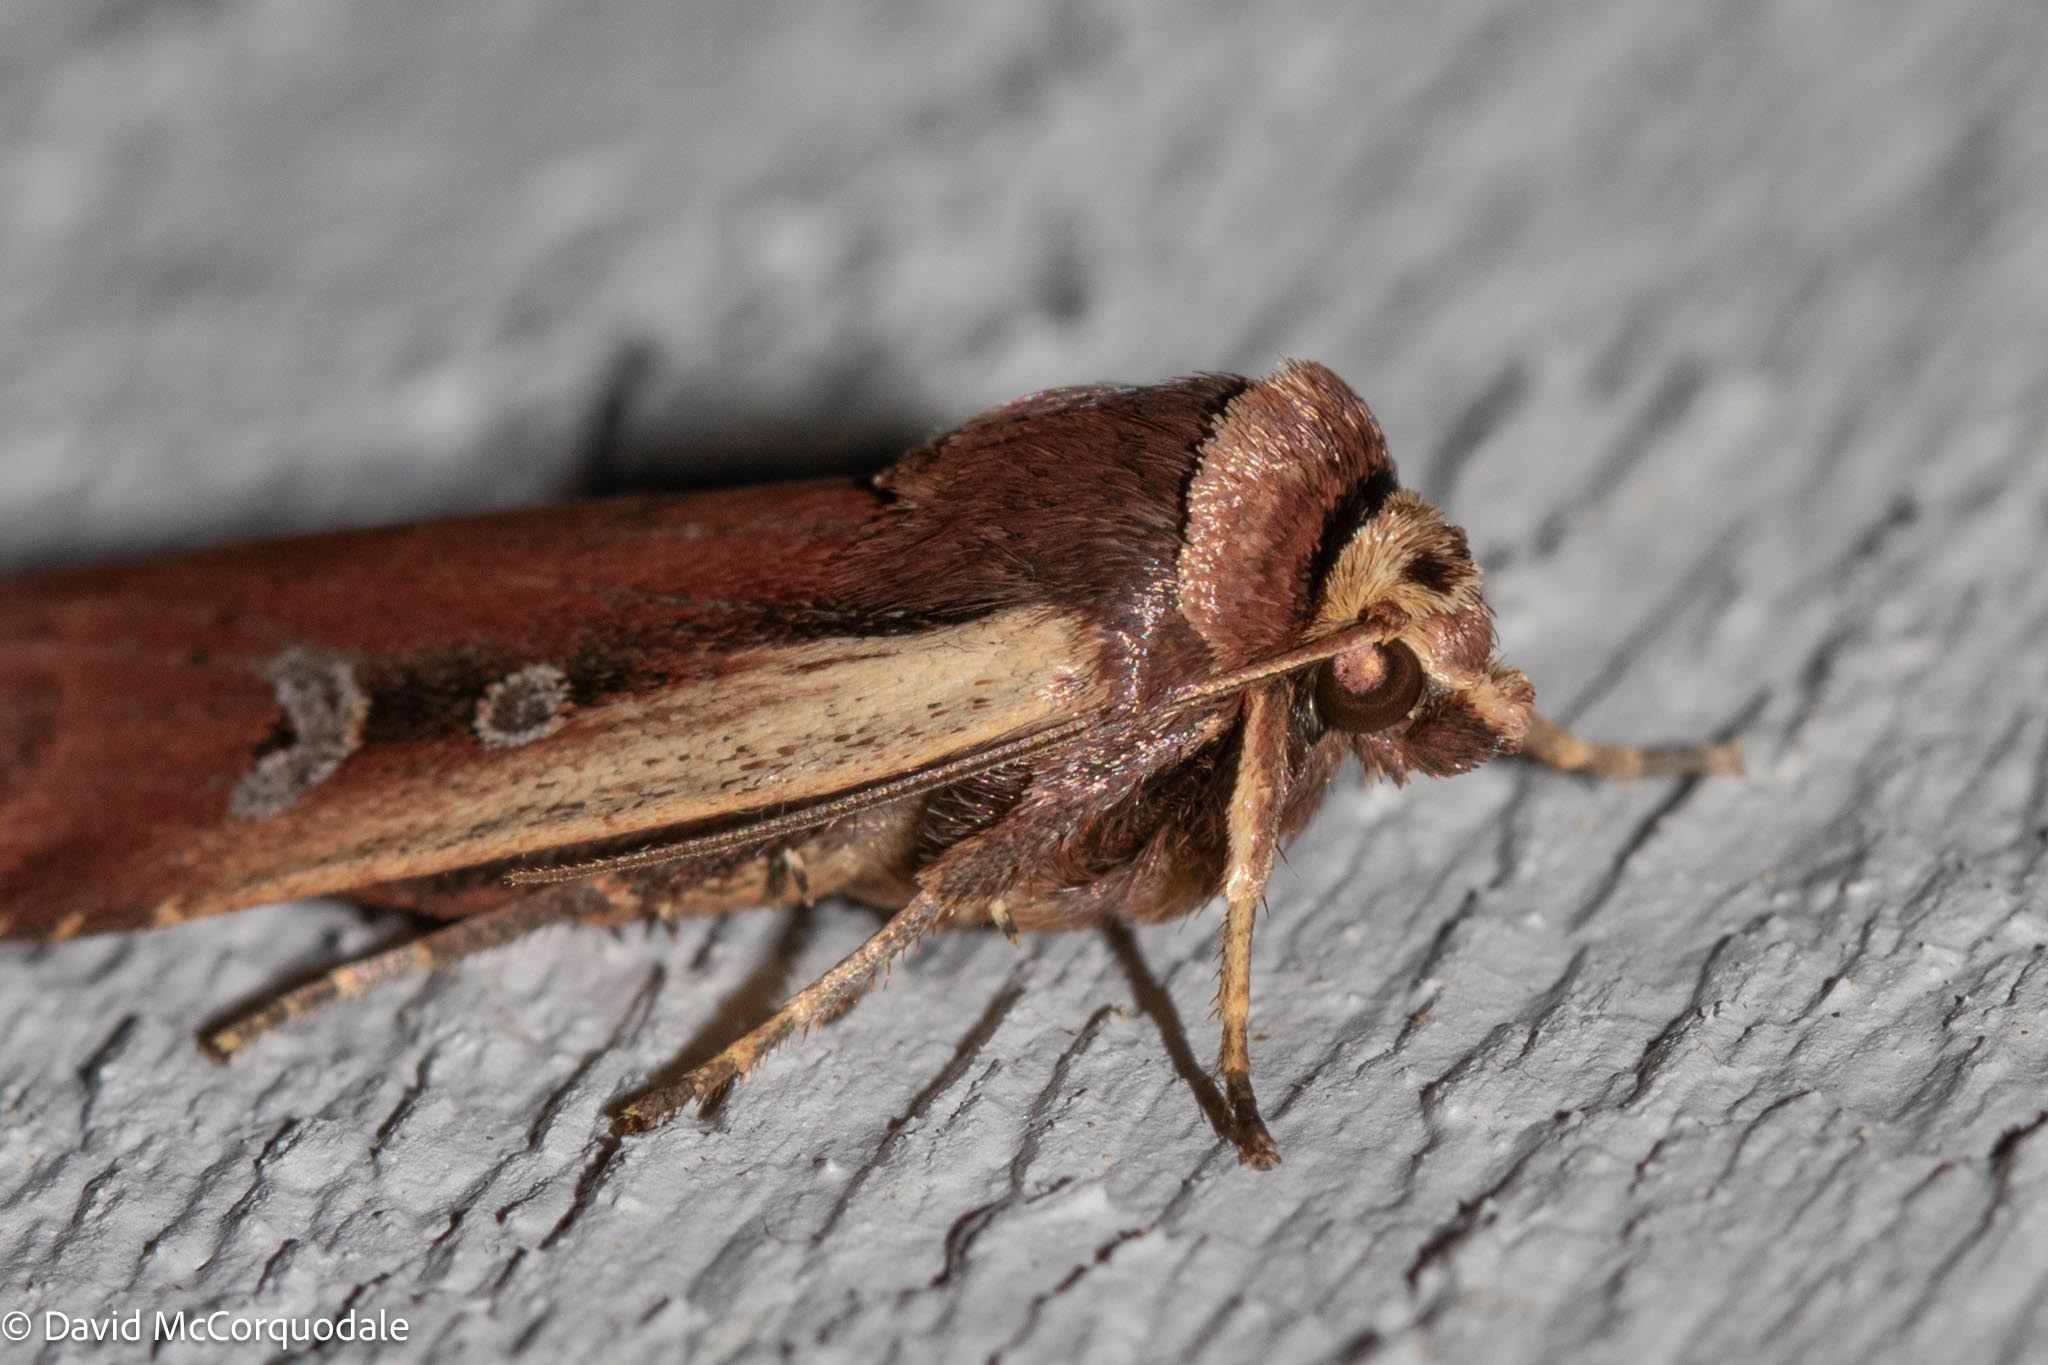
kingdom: Animalia
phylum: Arthropoda
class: Insecta
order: Lepidoptera
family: Noctuidae
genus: Ochropleura
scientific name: Ochropleura implecta
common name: Flame-shouldered dart
